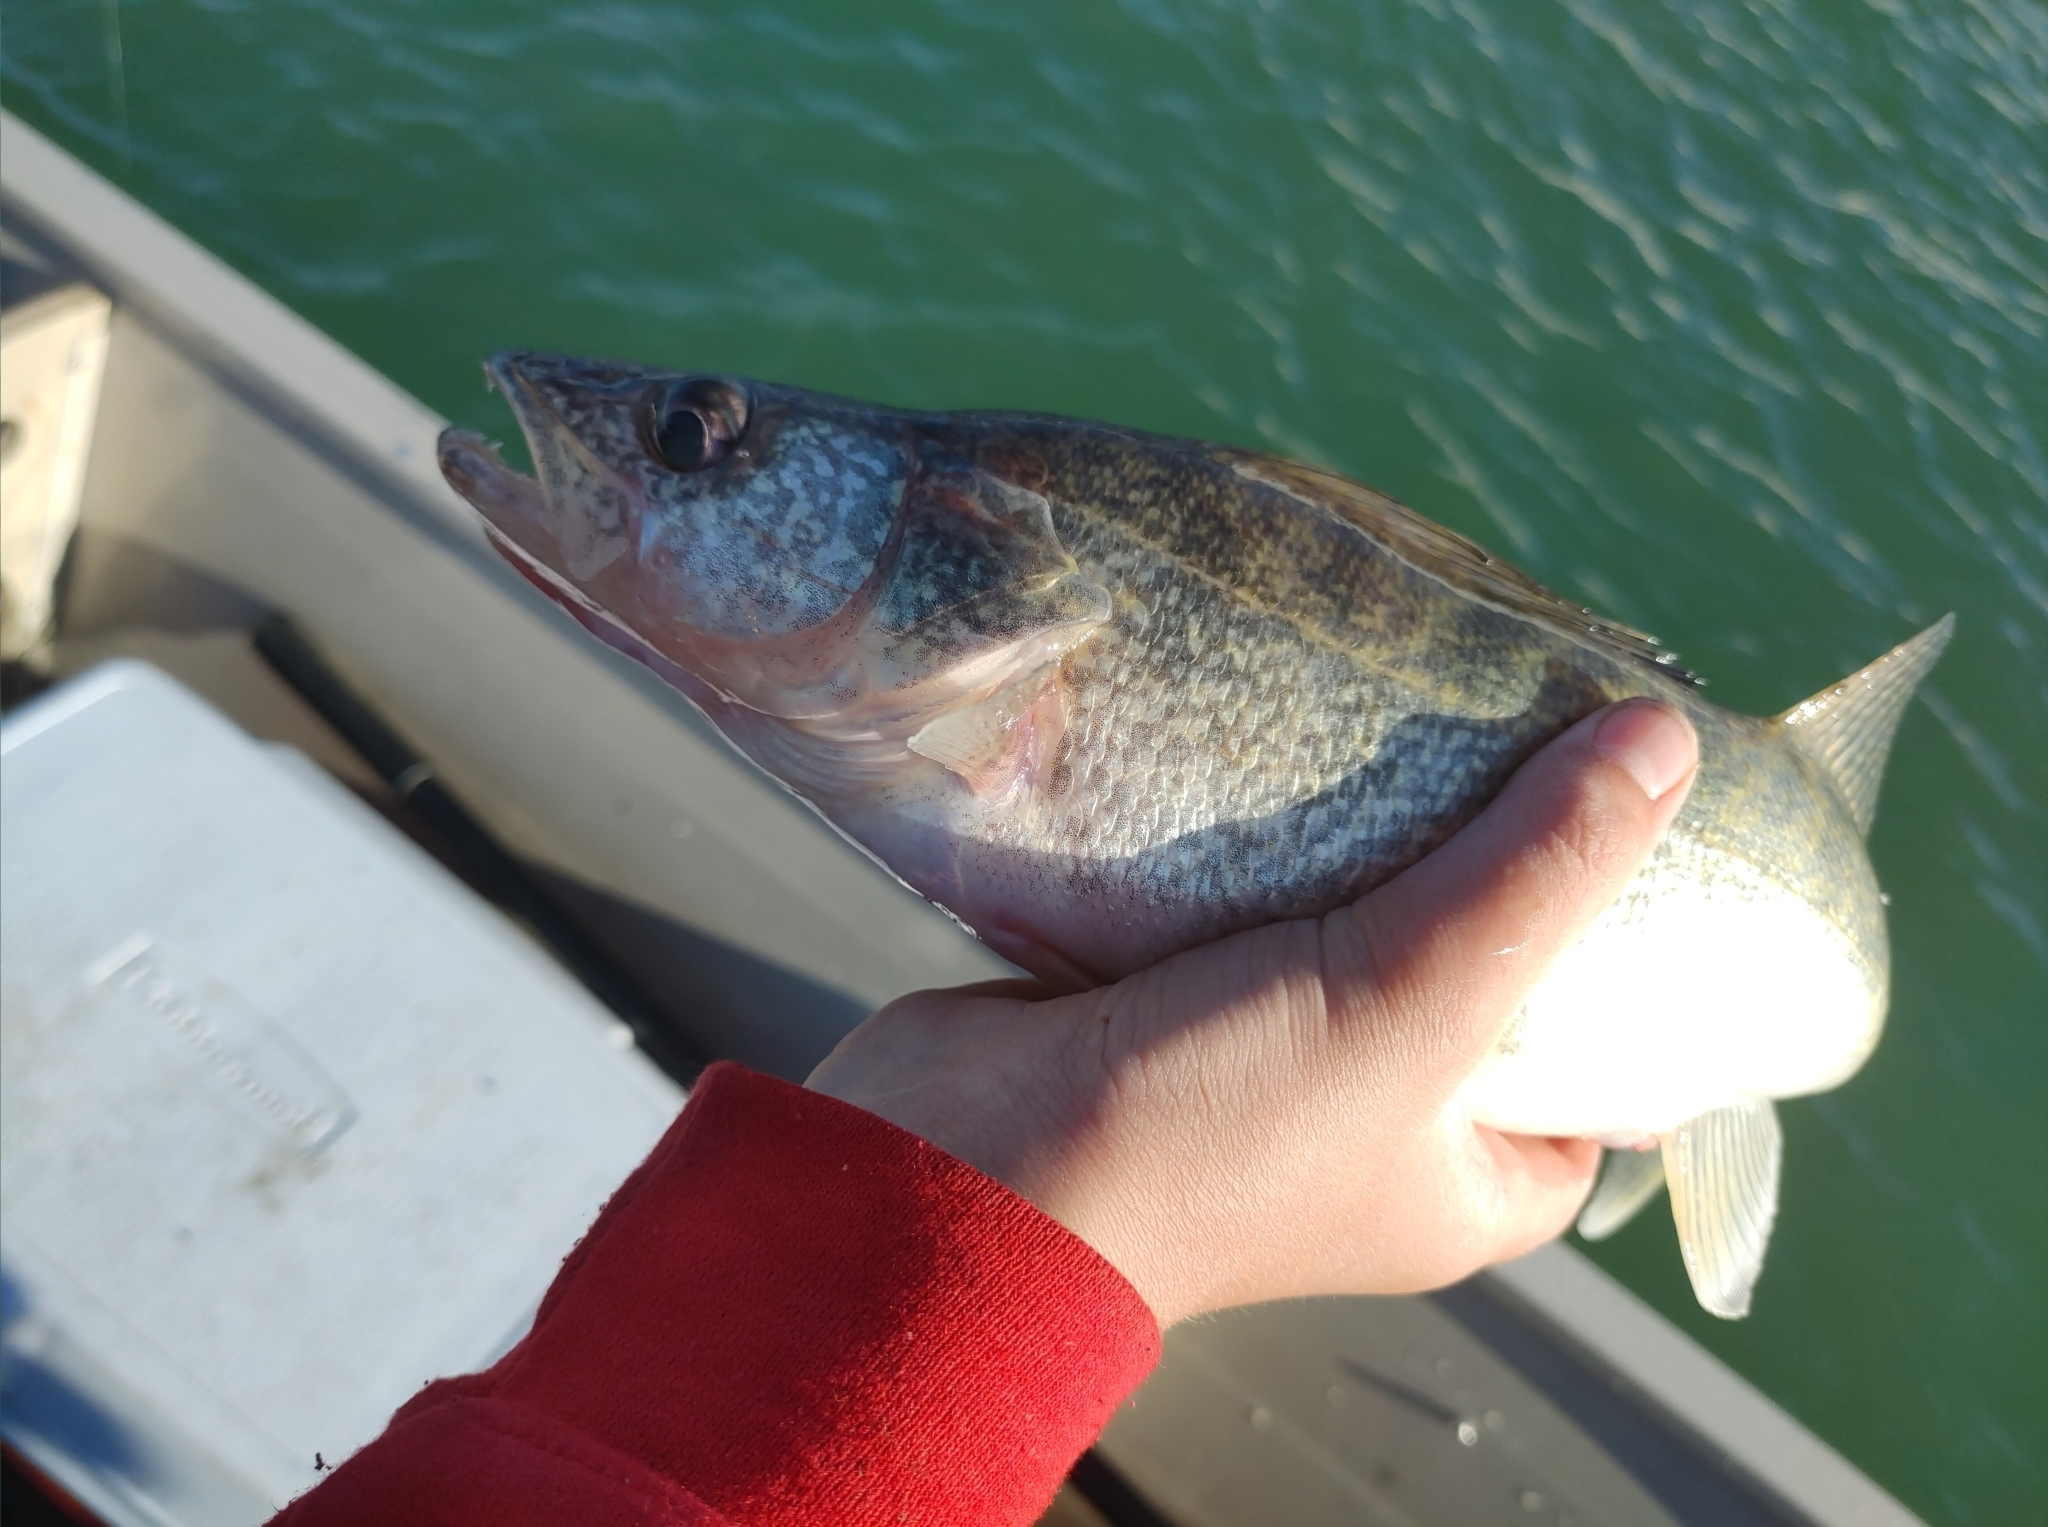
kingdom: Animalia
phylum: Chordata
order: Perciformes
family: Percidae
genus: Sander
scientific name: Sander vitreus
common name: Walleye
